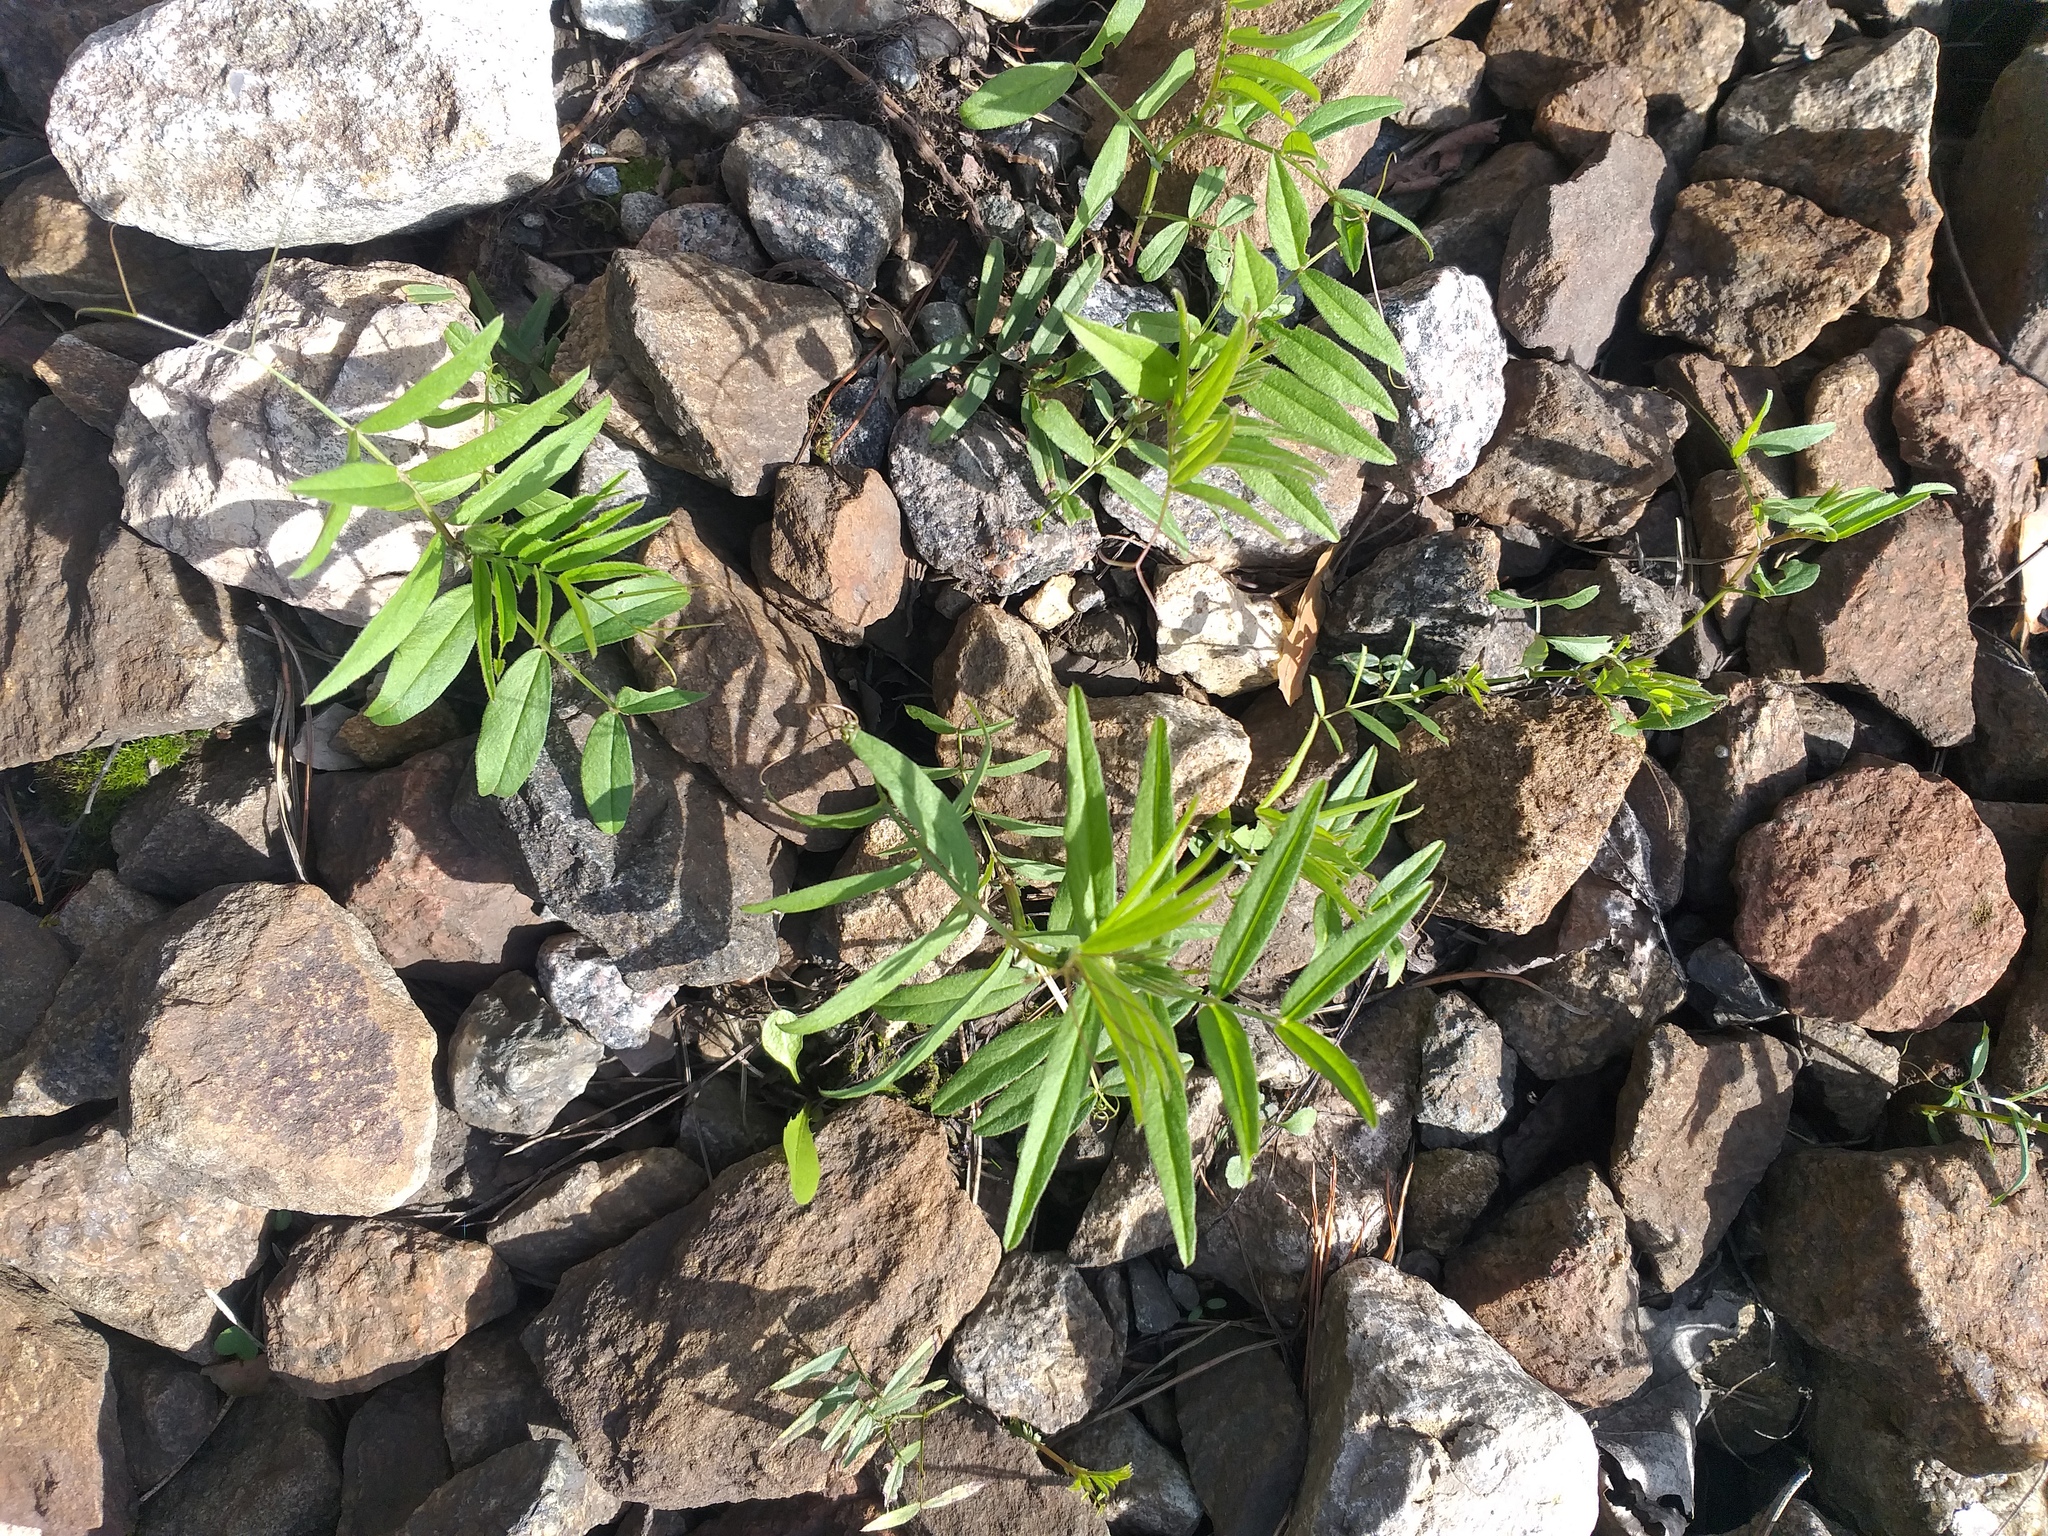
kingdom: Plantae
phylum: Tracheophyta
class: Magnoliopsida
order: Fabales
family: Fabaceae
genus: Vicia
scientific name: Vicia sepium
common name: Bush vetch
